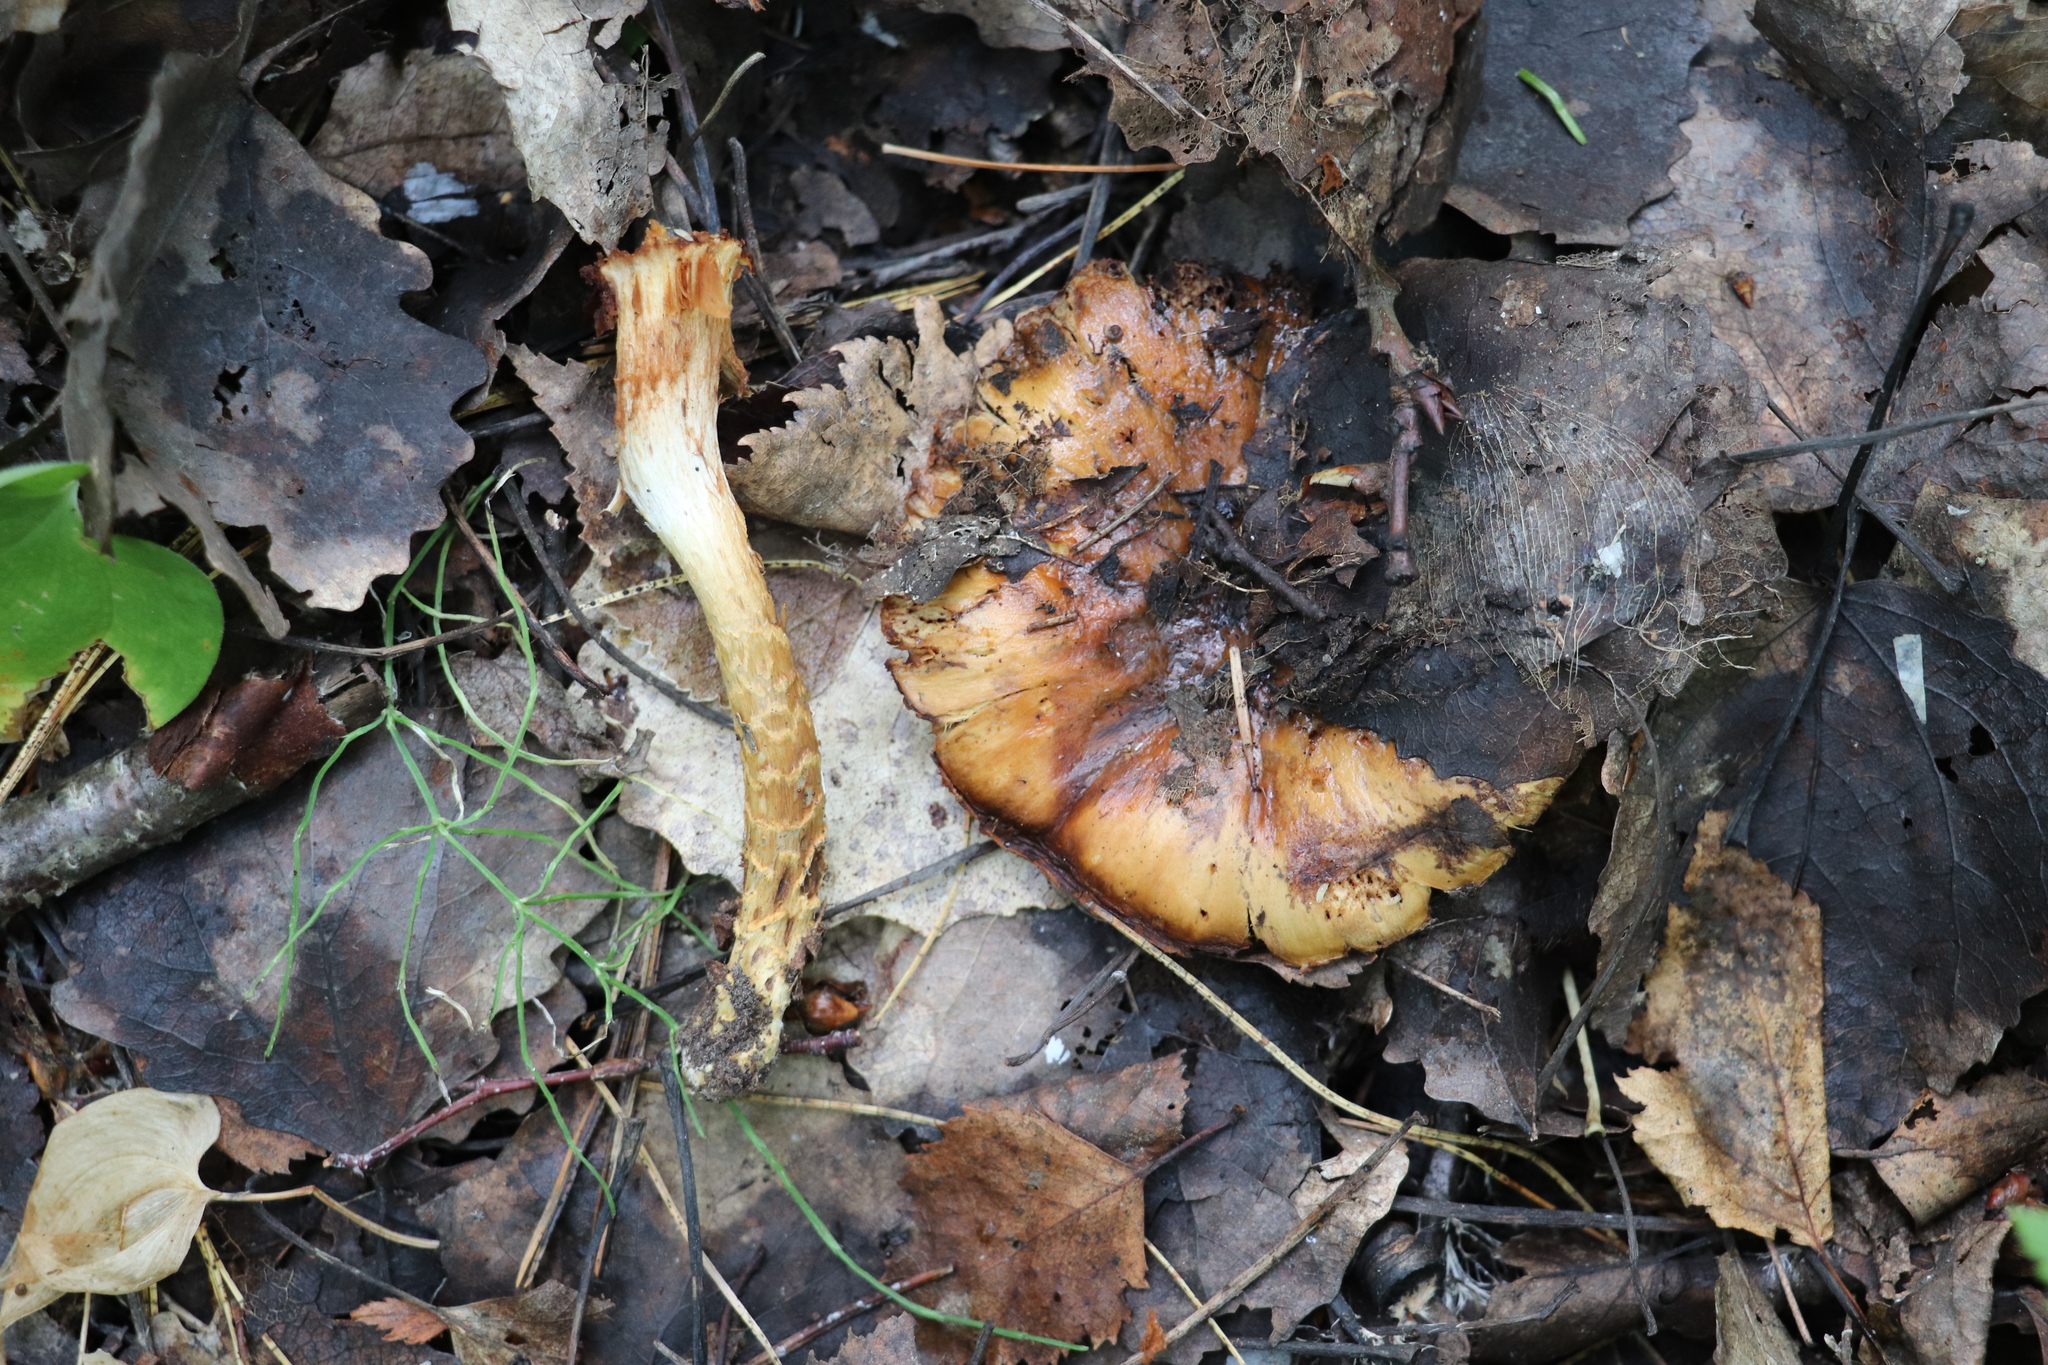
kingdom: Fungi
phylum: Basidiomycota
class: Agaricomycetes
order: Agaricales
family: Cortinariaceae
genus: Cortinarius
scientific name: Cortinarius trivialis
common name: Girdled webcap
